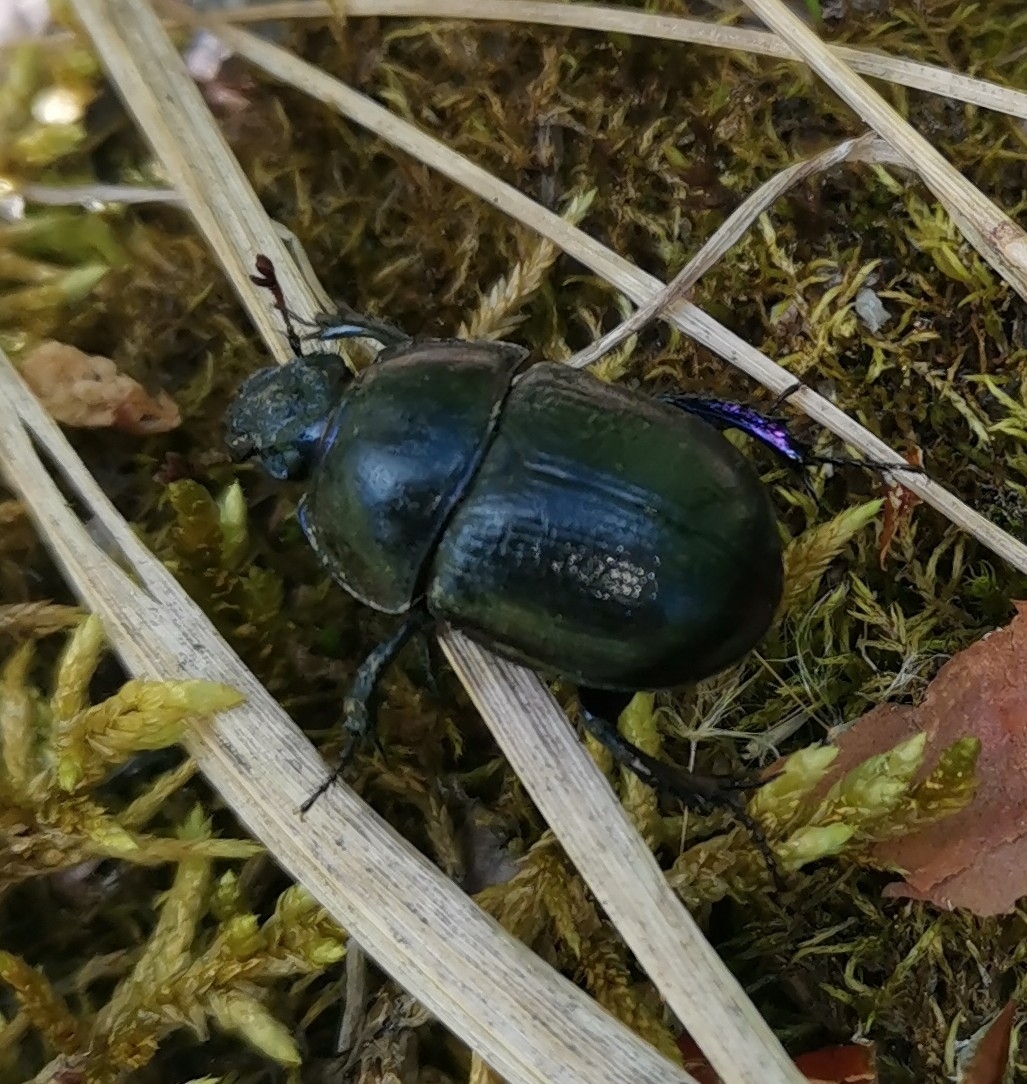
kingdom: Animalia
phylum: Arthropoda
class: Insecta
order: Coleoptera
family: Geotrupidae
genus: Anoplotrupes
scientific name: Anoplotrupes stercorosus
